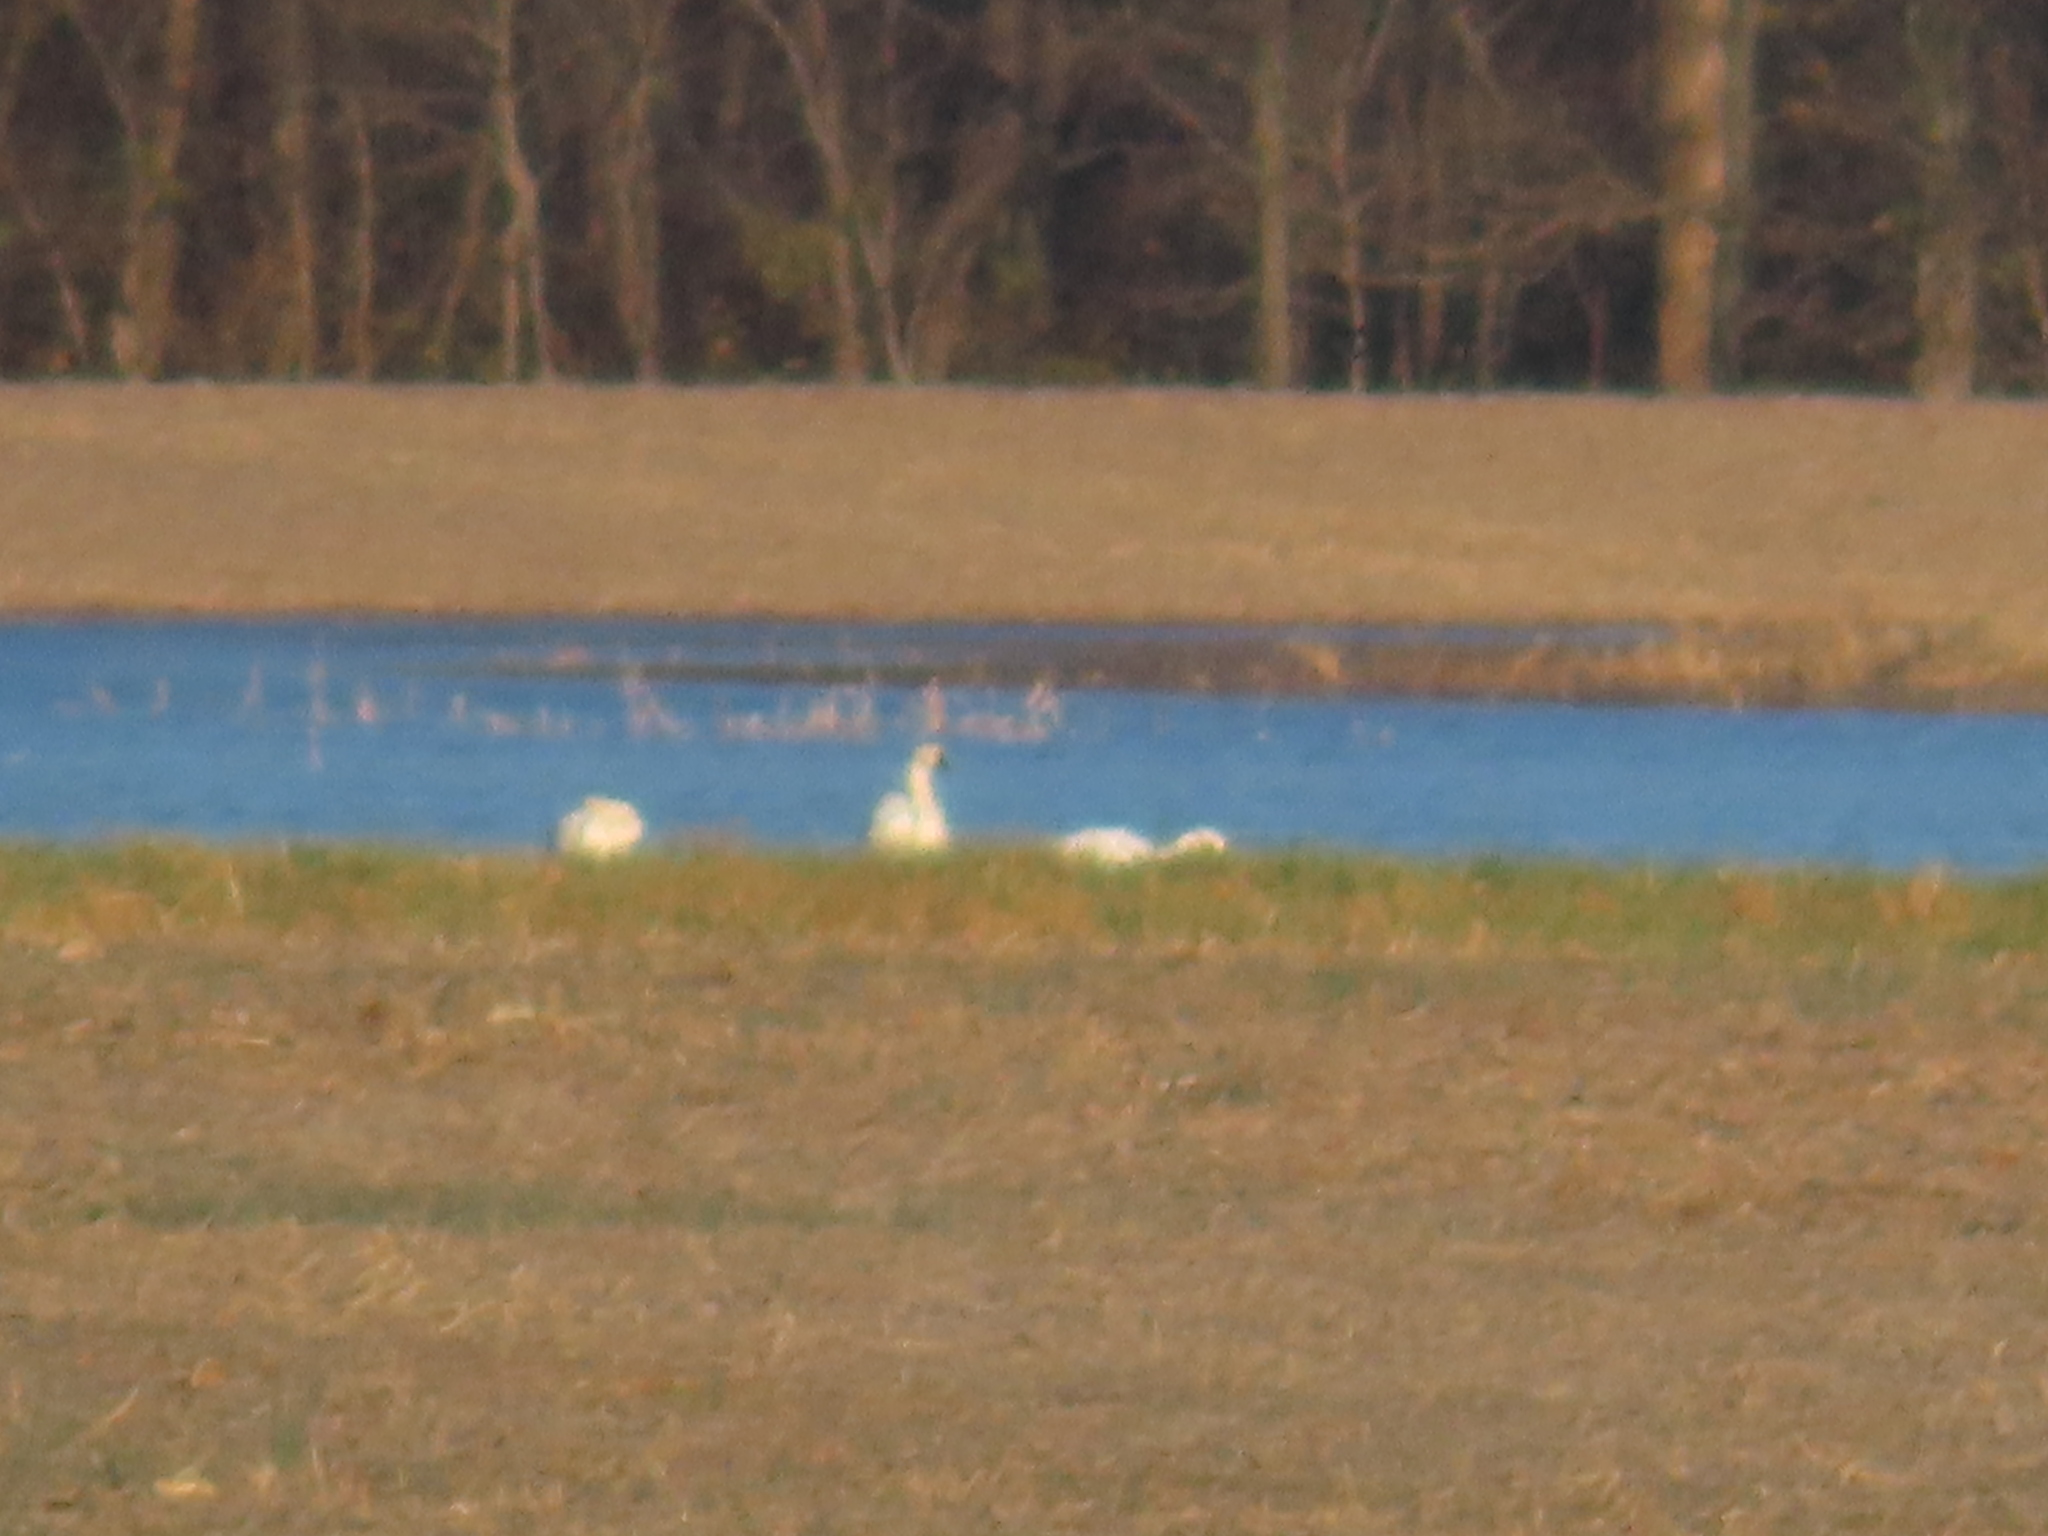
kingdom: Animalia
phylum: Chordata
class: Aves
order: Anseriformes
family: Anatidae
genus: Cygnus
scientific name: Cygnus columbianus
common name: Tundra swan
